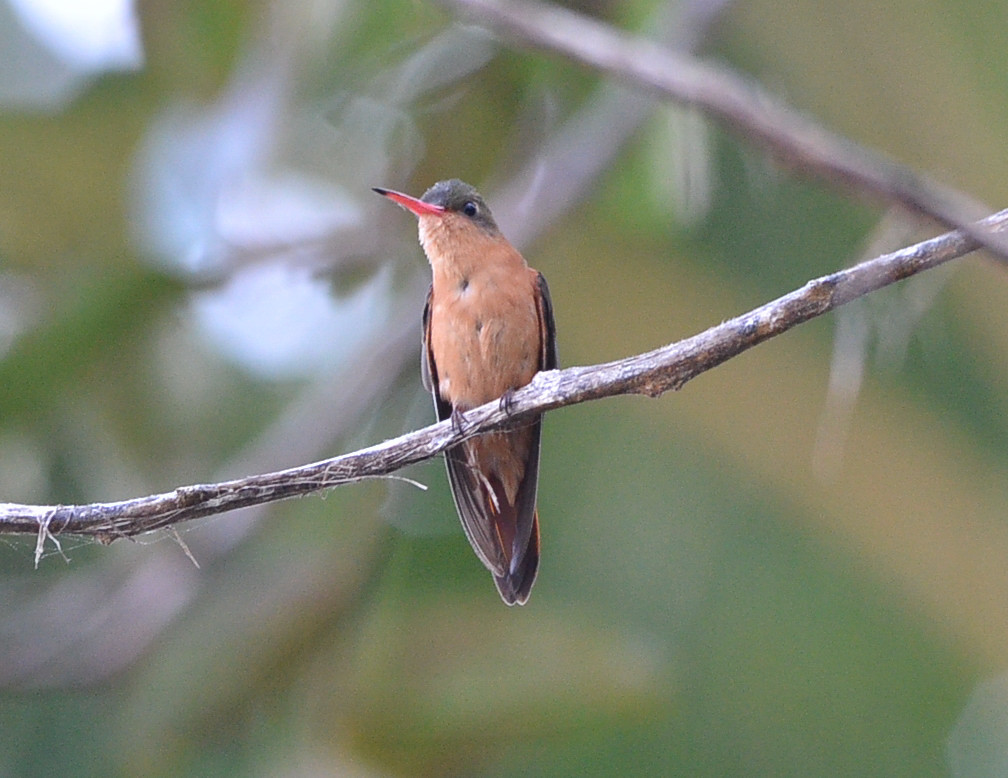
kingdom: Animalia
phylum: Chordata
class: Aves
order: Apodiformes
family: Trochilidae
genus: Amazilia
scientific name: Amazilia rutila
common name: Cinnamon hummingbird
